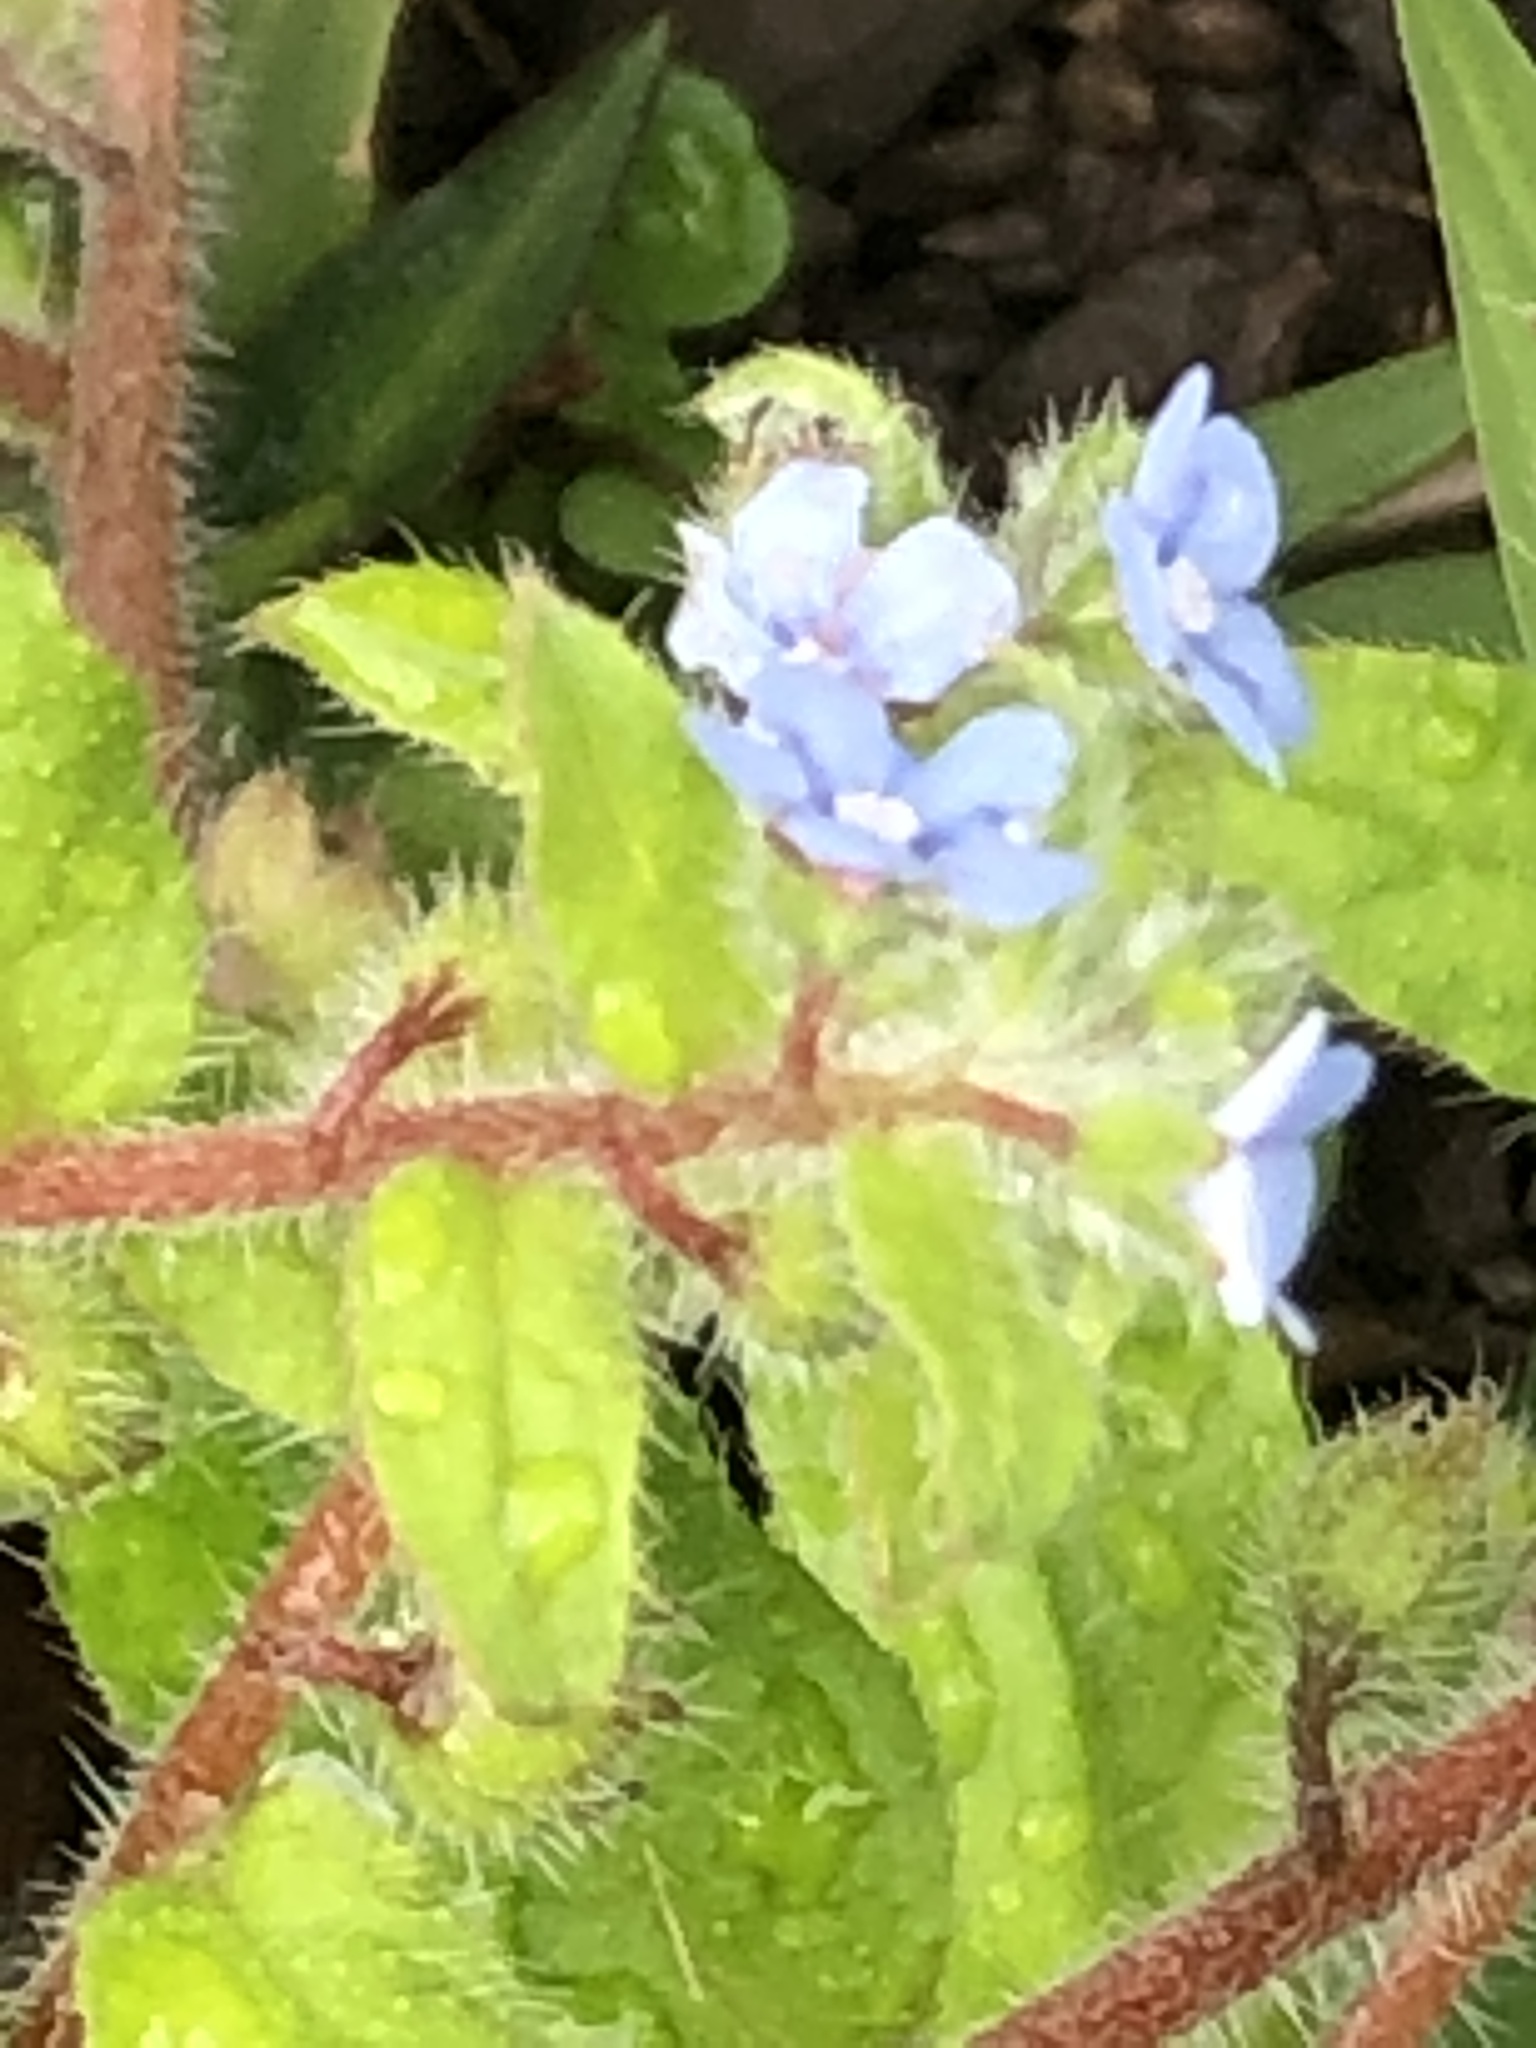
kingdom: Plantae
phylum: Tracheophyta
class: Magnoliopsida
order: Boraginales
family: Boraginaceae
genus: Thyrocarpus
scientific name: Thyrocarpus sampsonii
